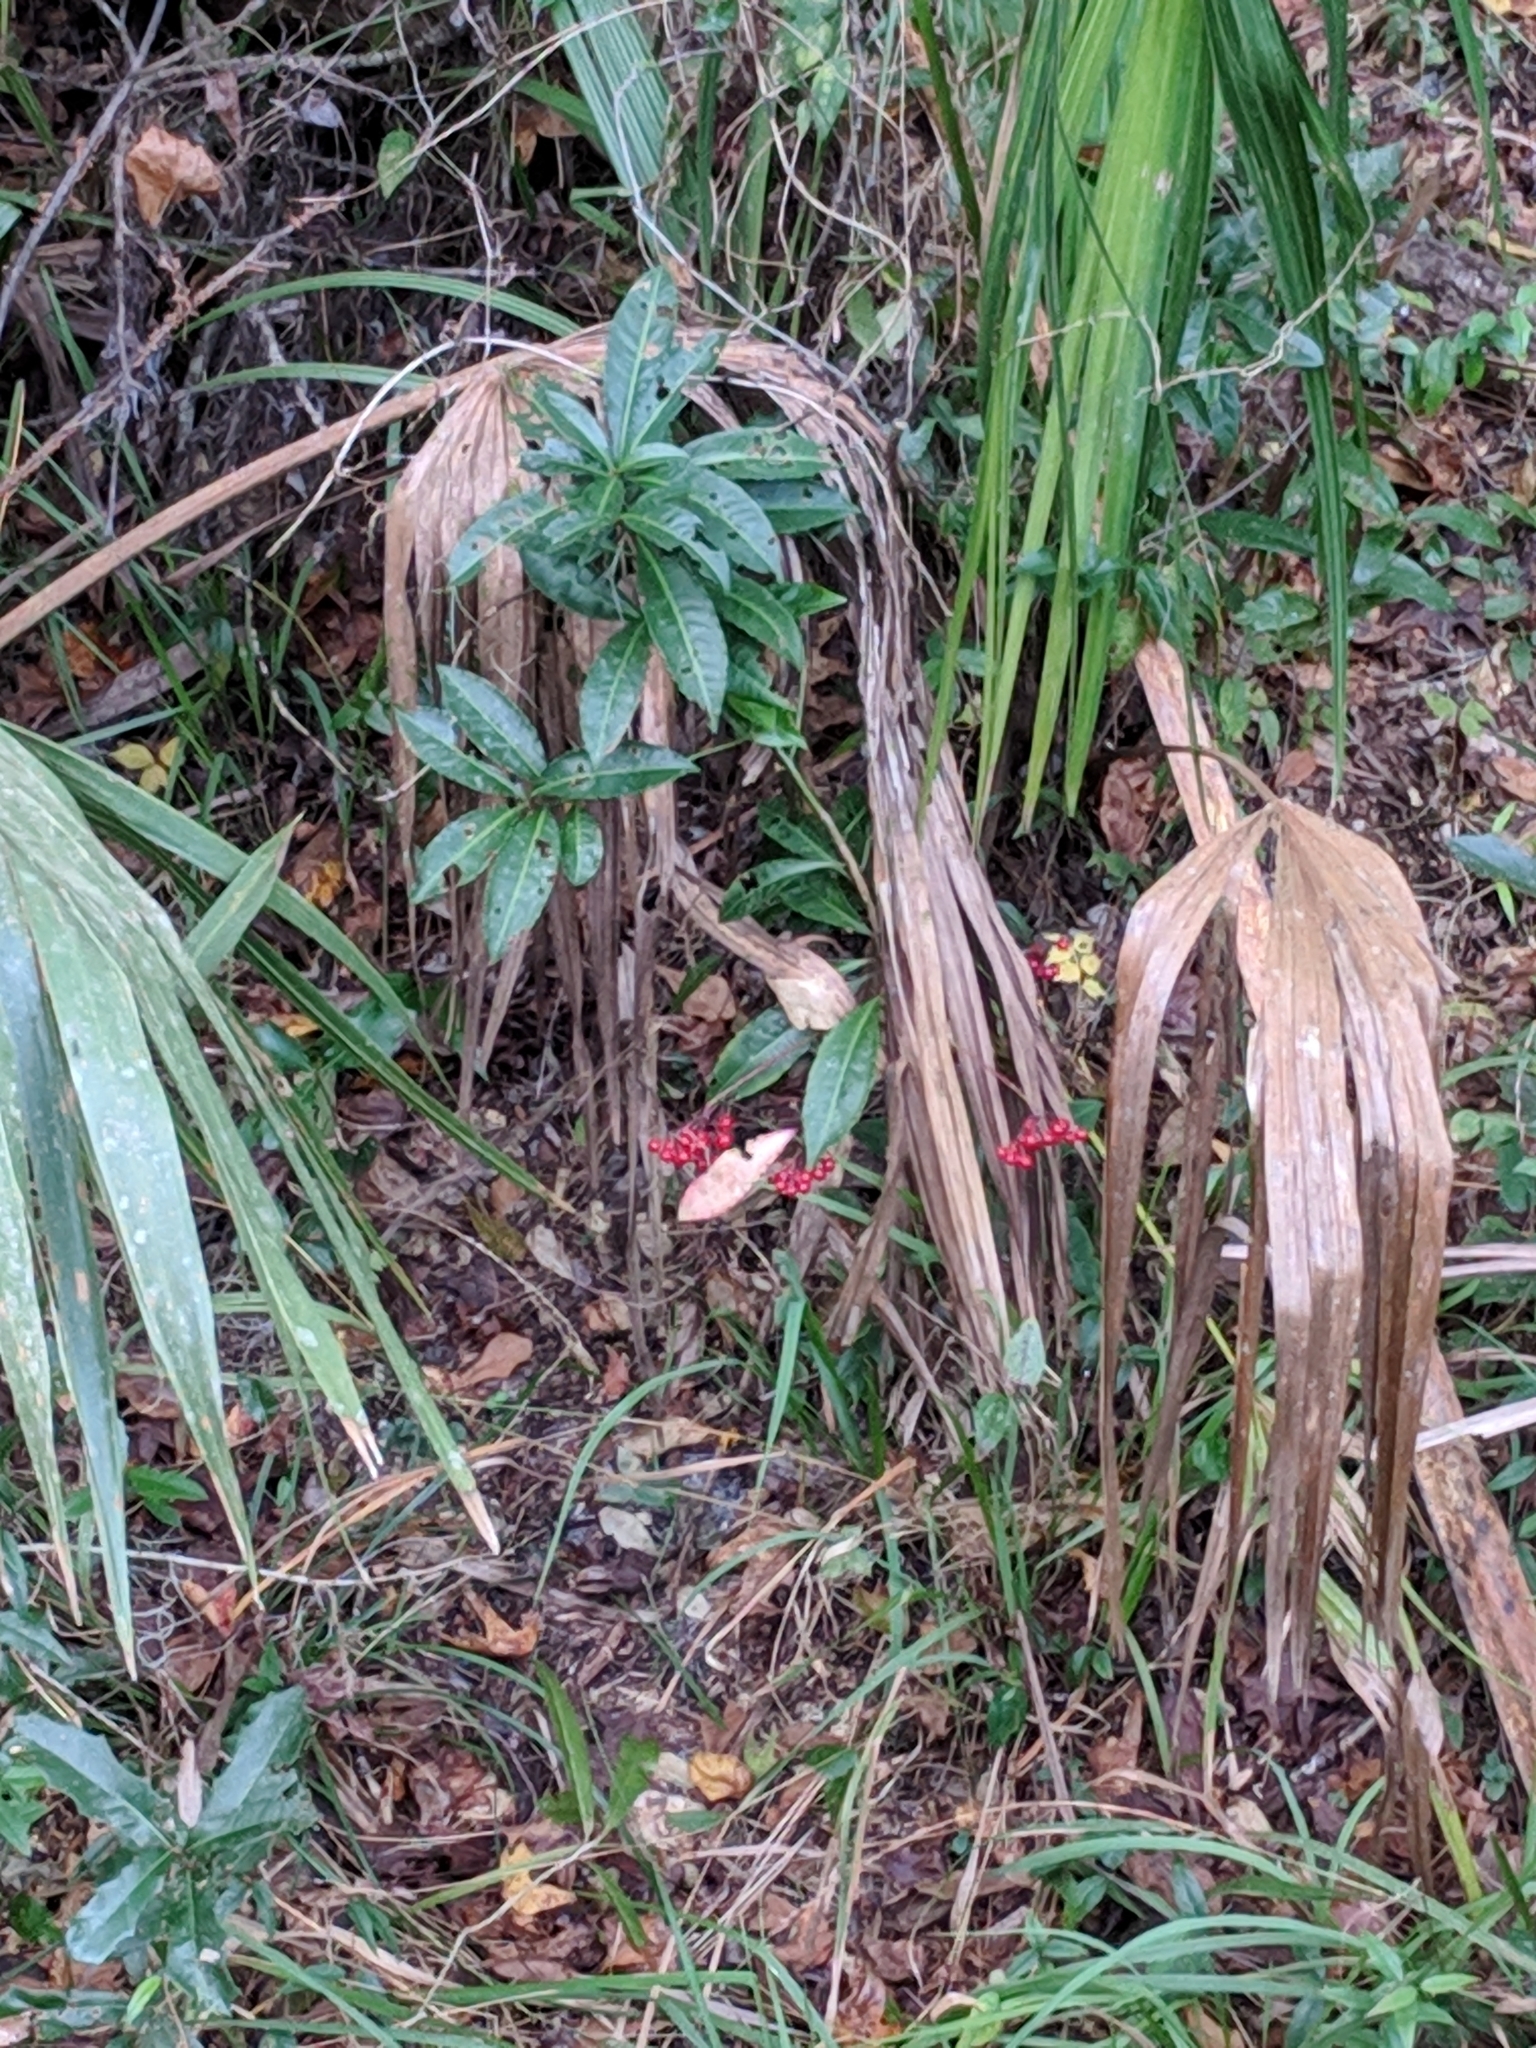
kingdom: Plantae
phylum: Tracheophyta
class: Magnoliopsida
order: Ericales
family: Primulaceae
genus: Ardisia
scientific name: Ardisia crenata
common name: Hen's eyes
